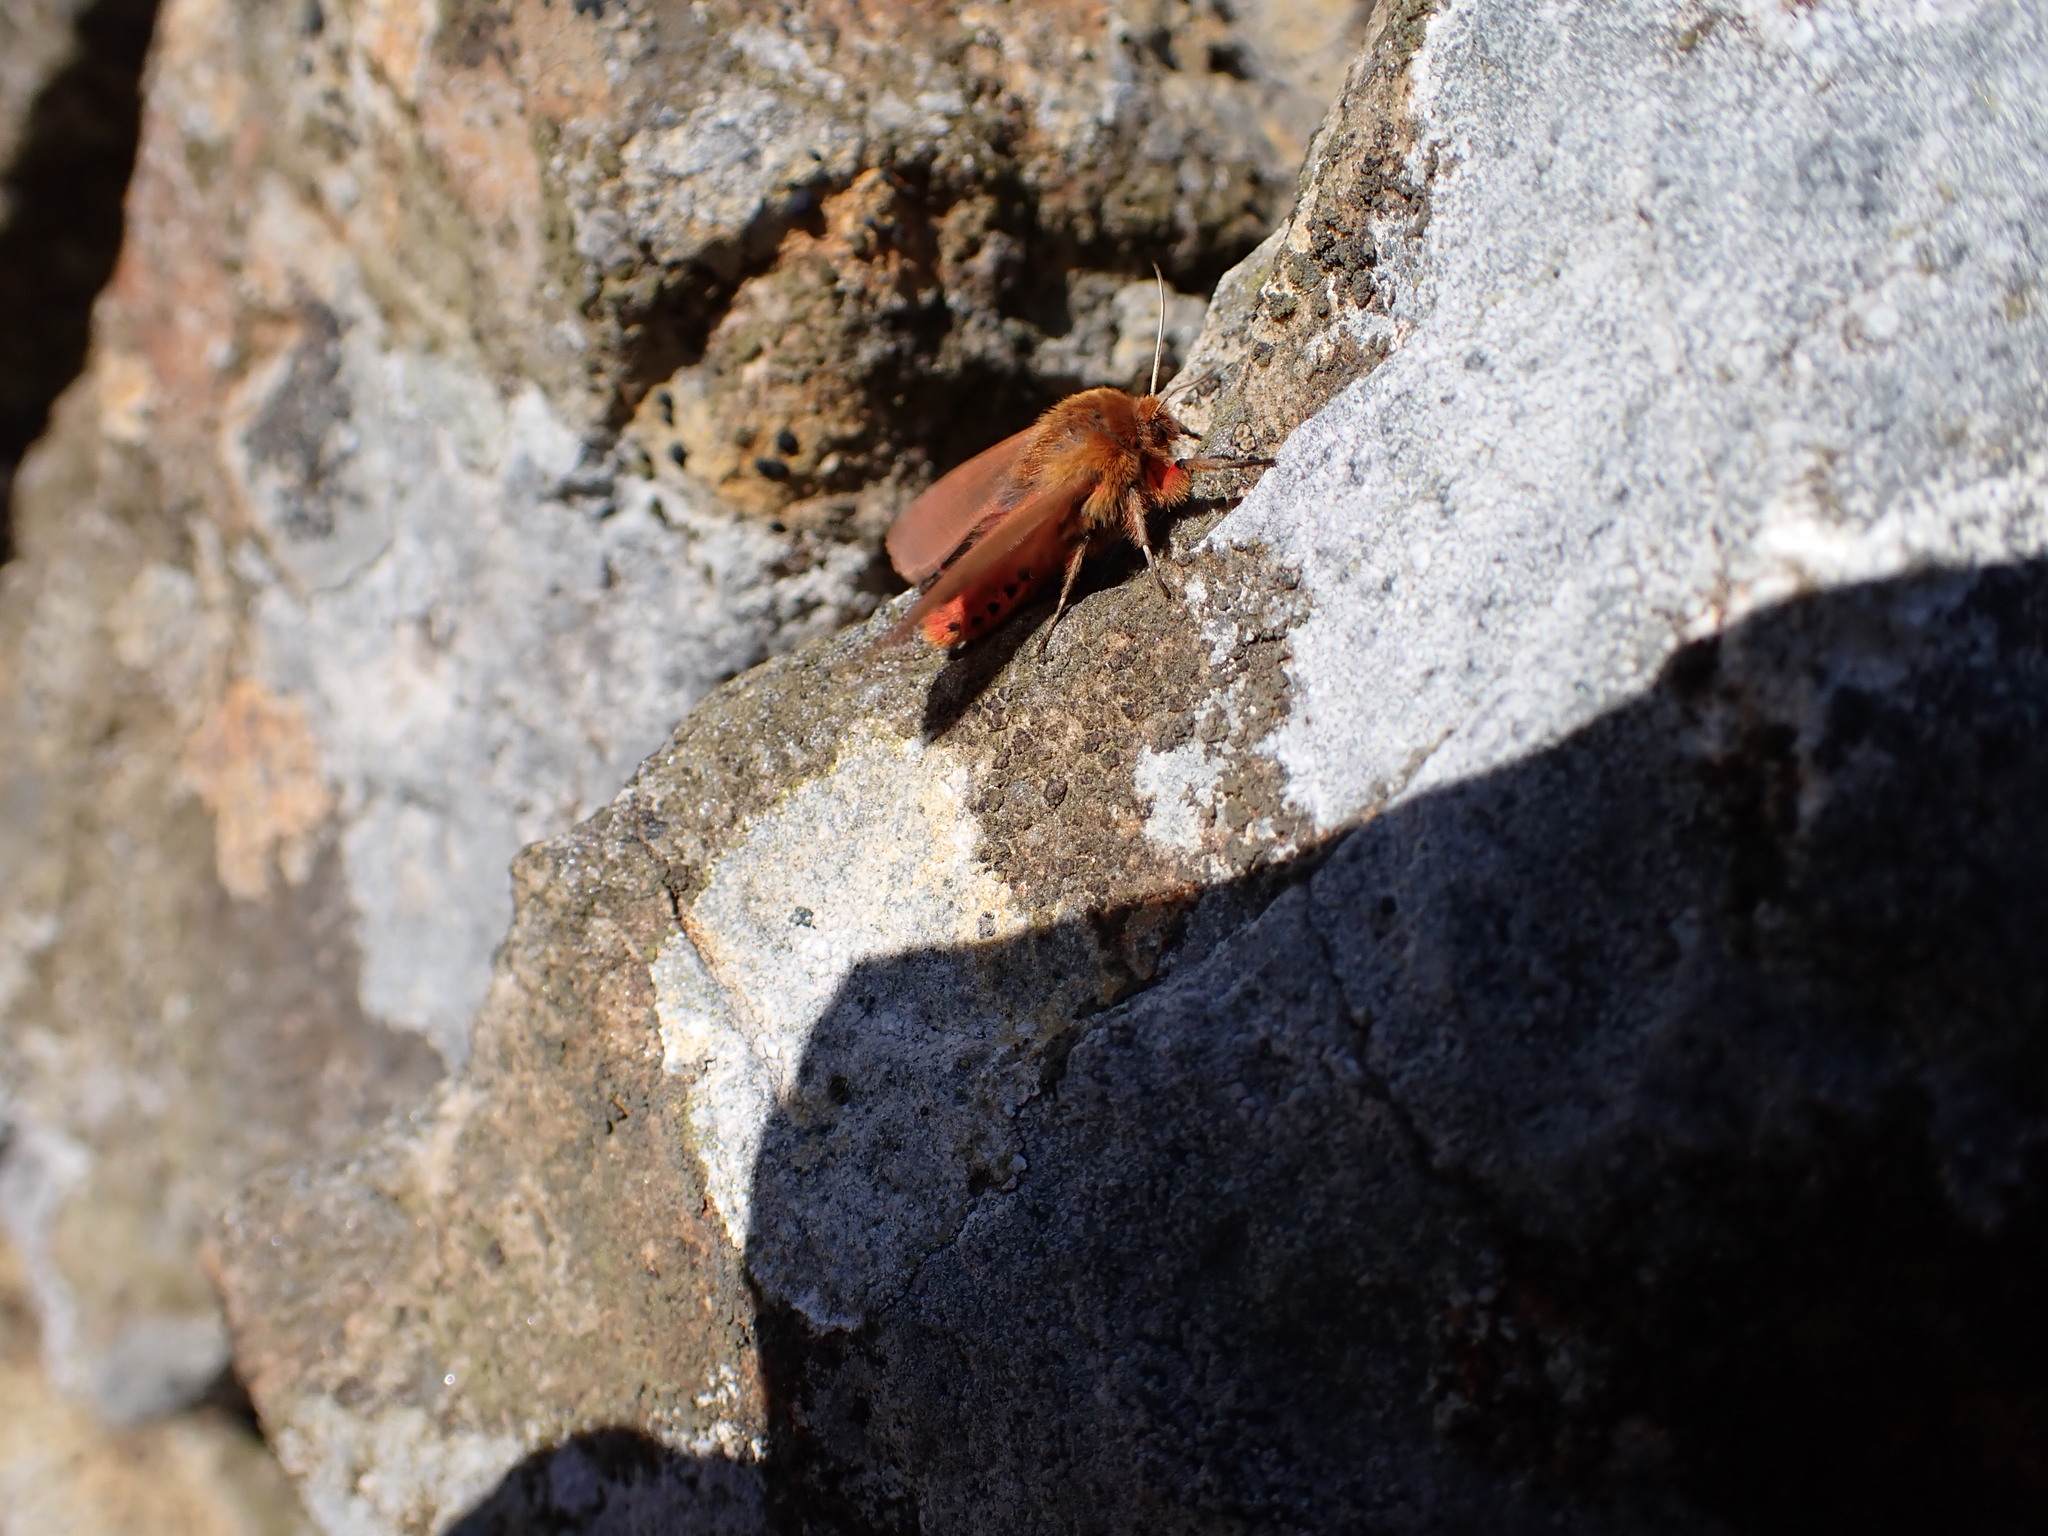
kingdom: Animalia
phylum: Arthropoda
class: Insecta
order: Lepidoptera
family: Erebidae
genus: Phragmatobia
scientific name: Phragmatobia fuliginosa
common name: Ruby tiger
